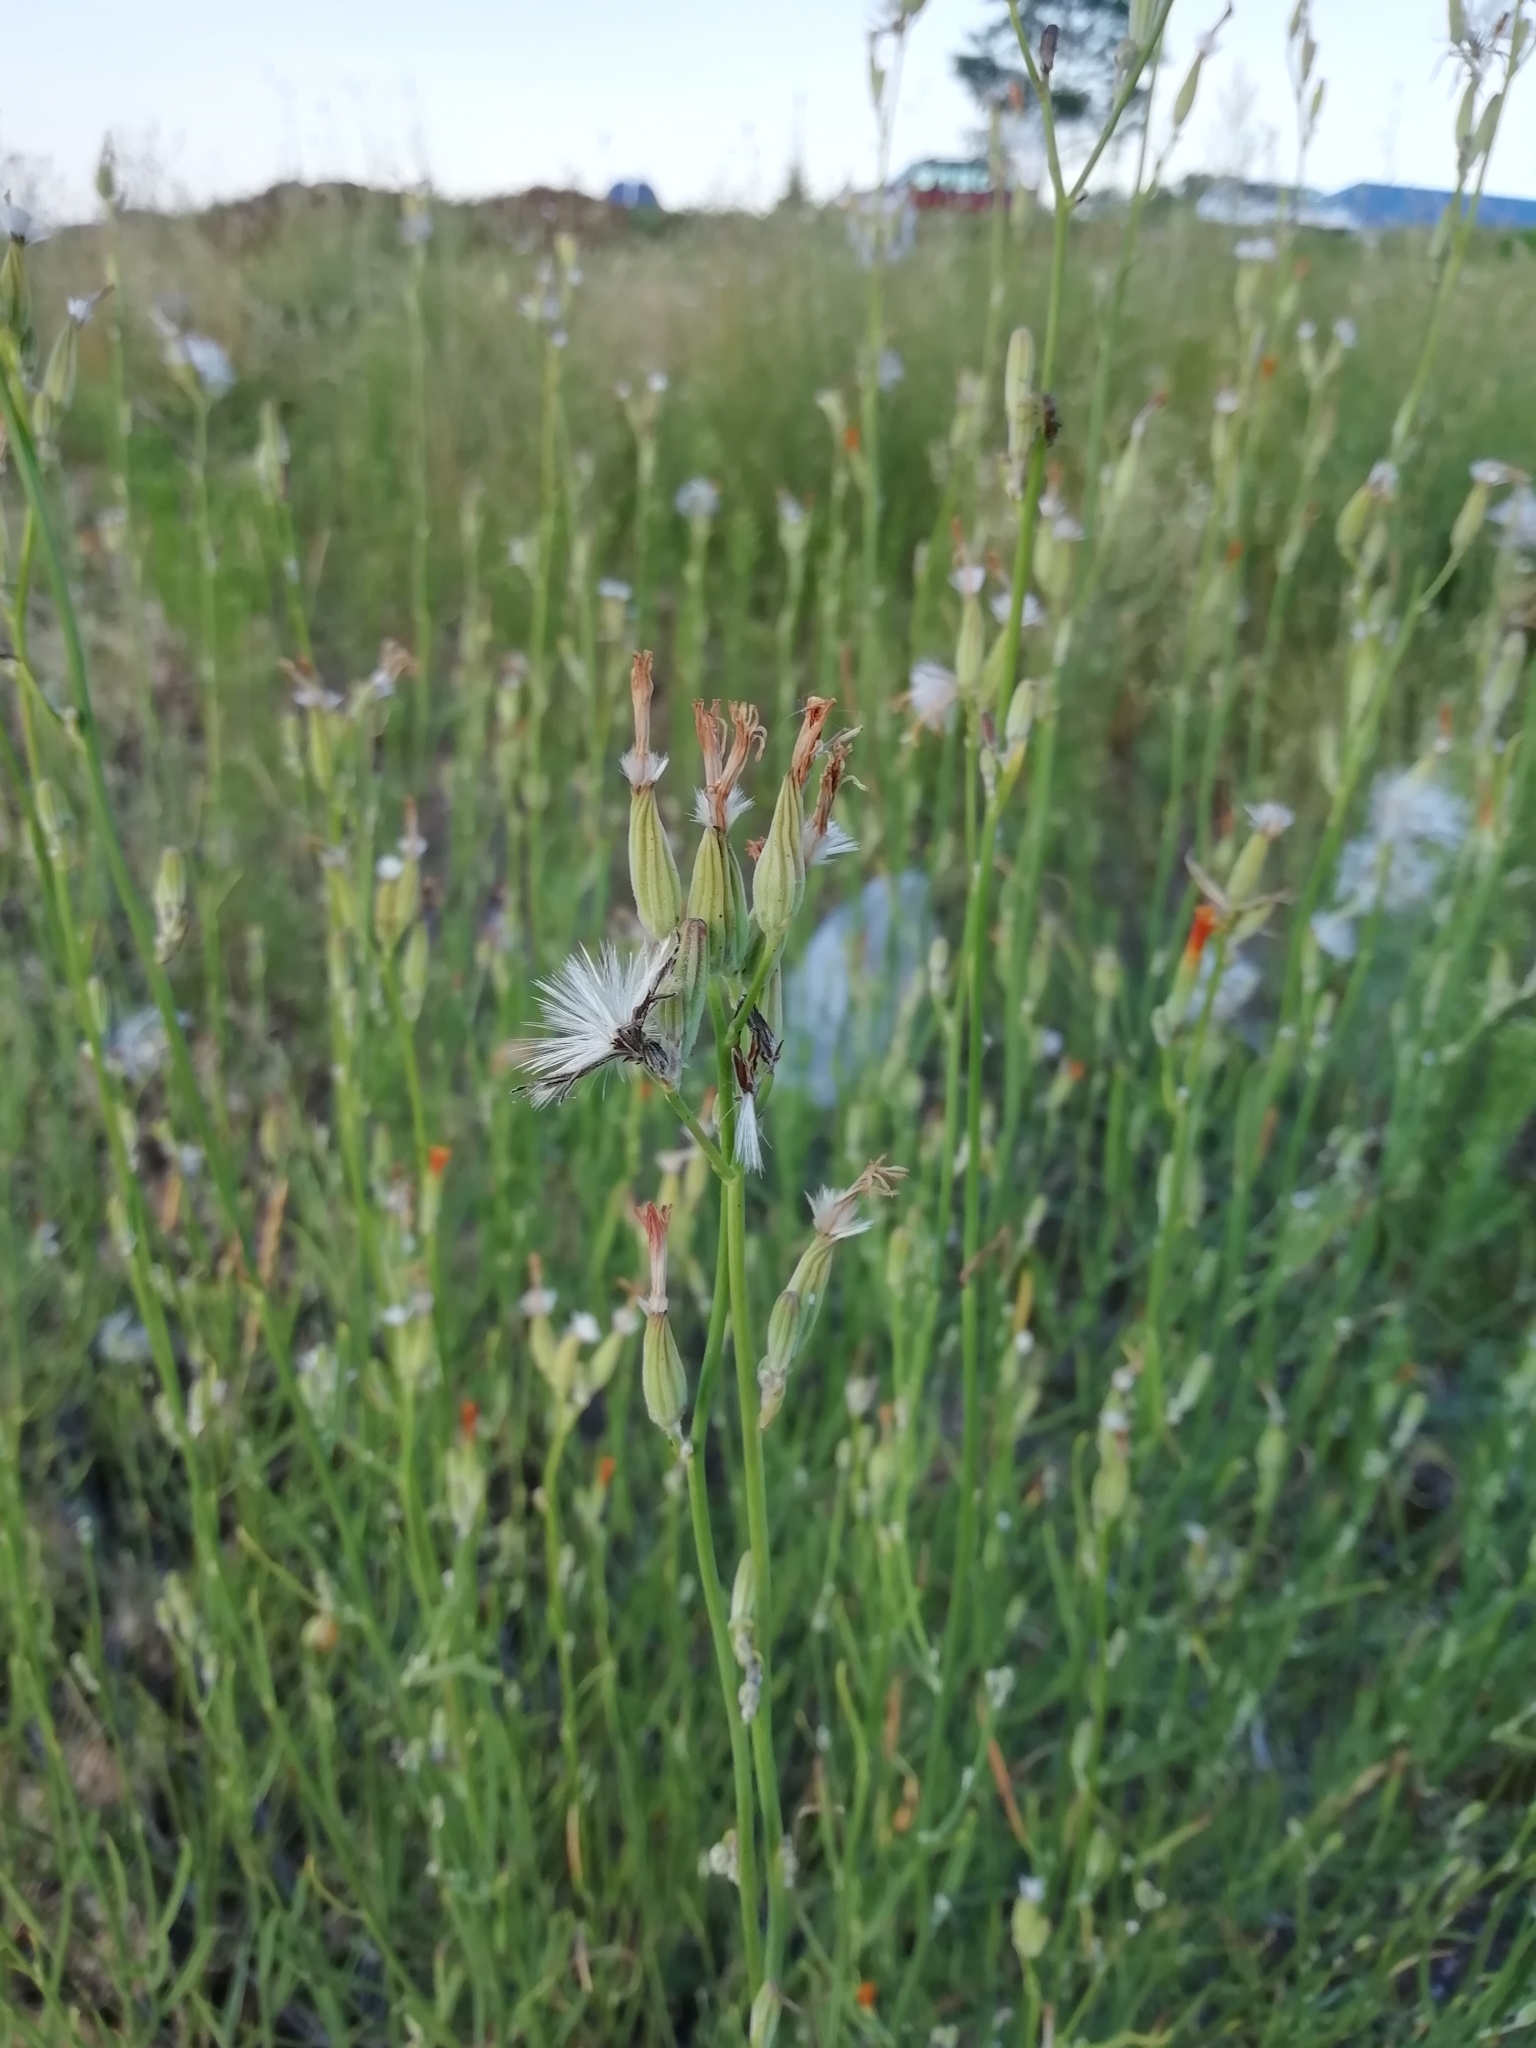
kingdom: Plantae
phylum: Tracheophyta
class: Magnoliopsida
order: Asterales
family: Asteraceae
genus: Chondrilla
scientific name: Chondrilla juncea
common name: Skeleton weed
